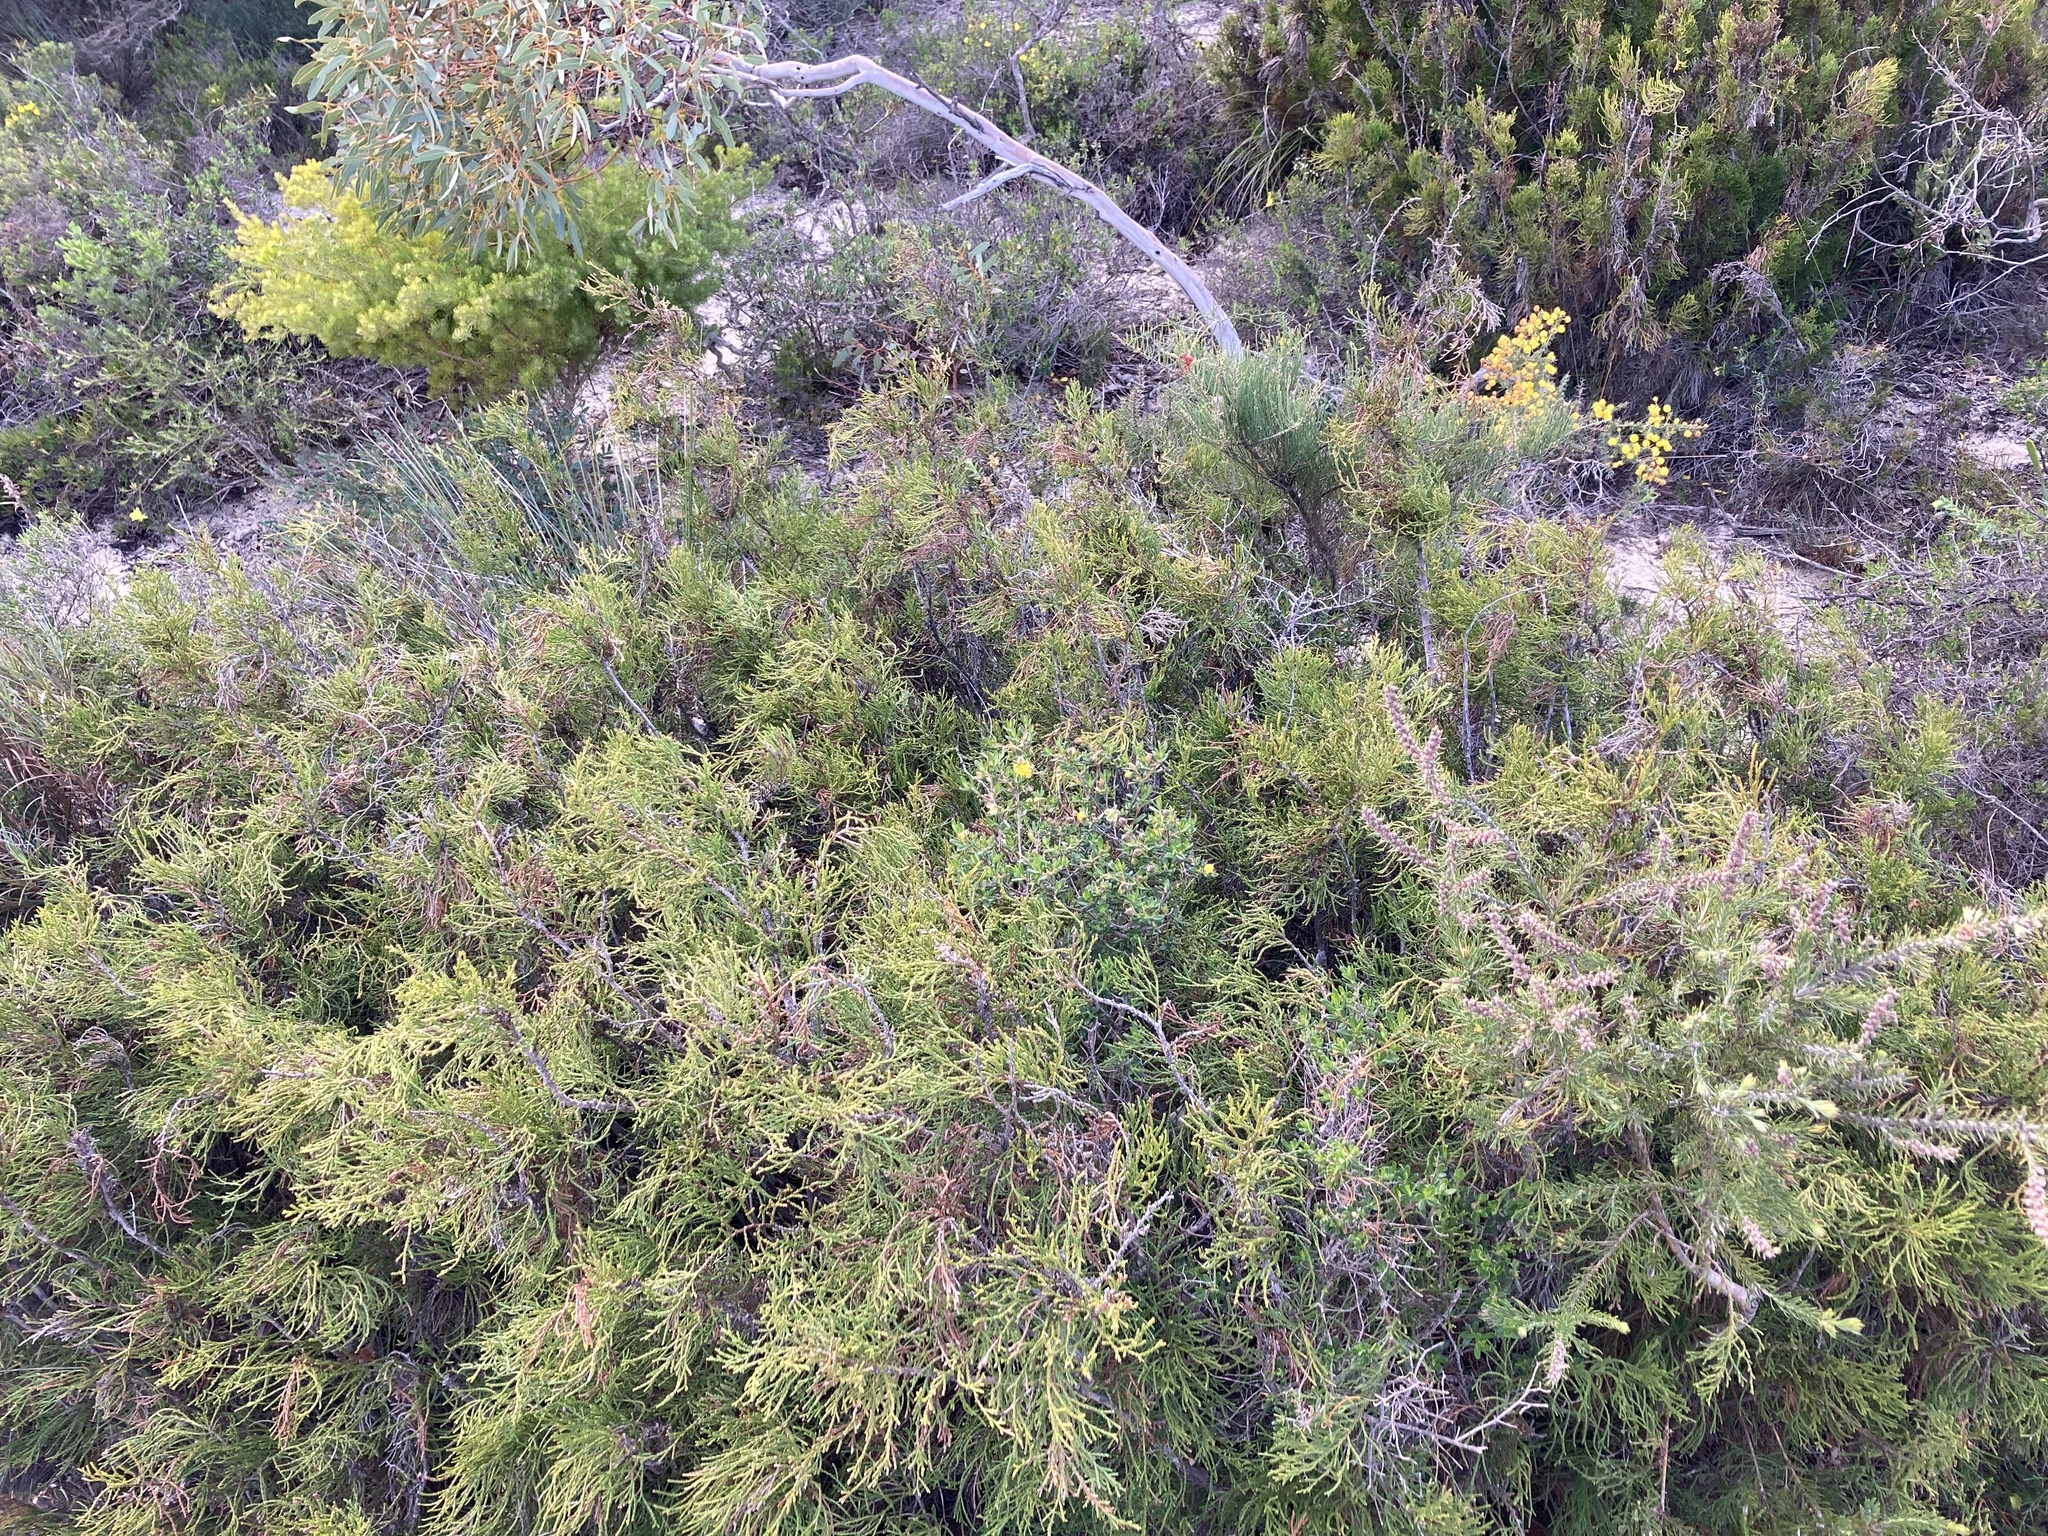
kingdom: Plantae
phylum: Tracheophyta
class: Pinopsida
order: Pinales
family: Cupressaceae
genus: Actinostrobus
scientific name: Actinostrobus acuminatus
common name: Dwarf-cypress
